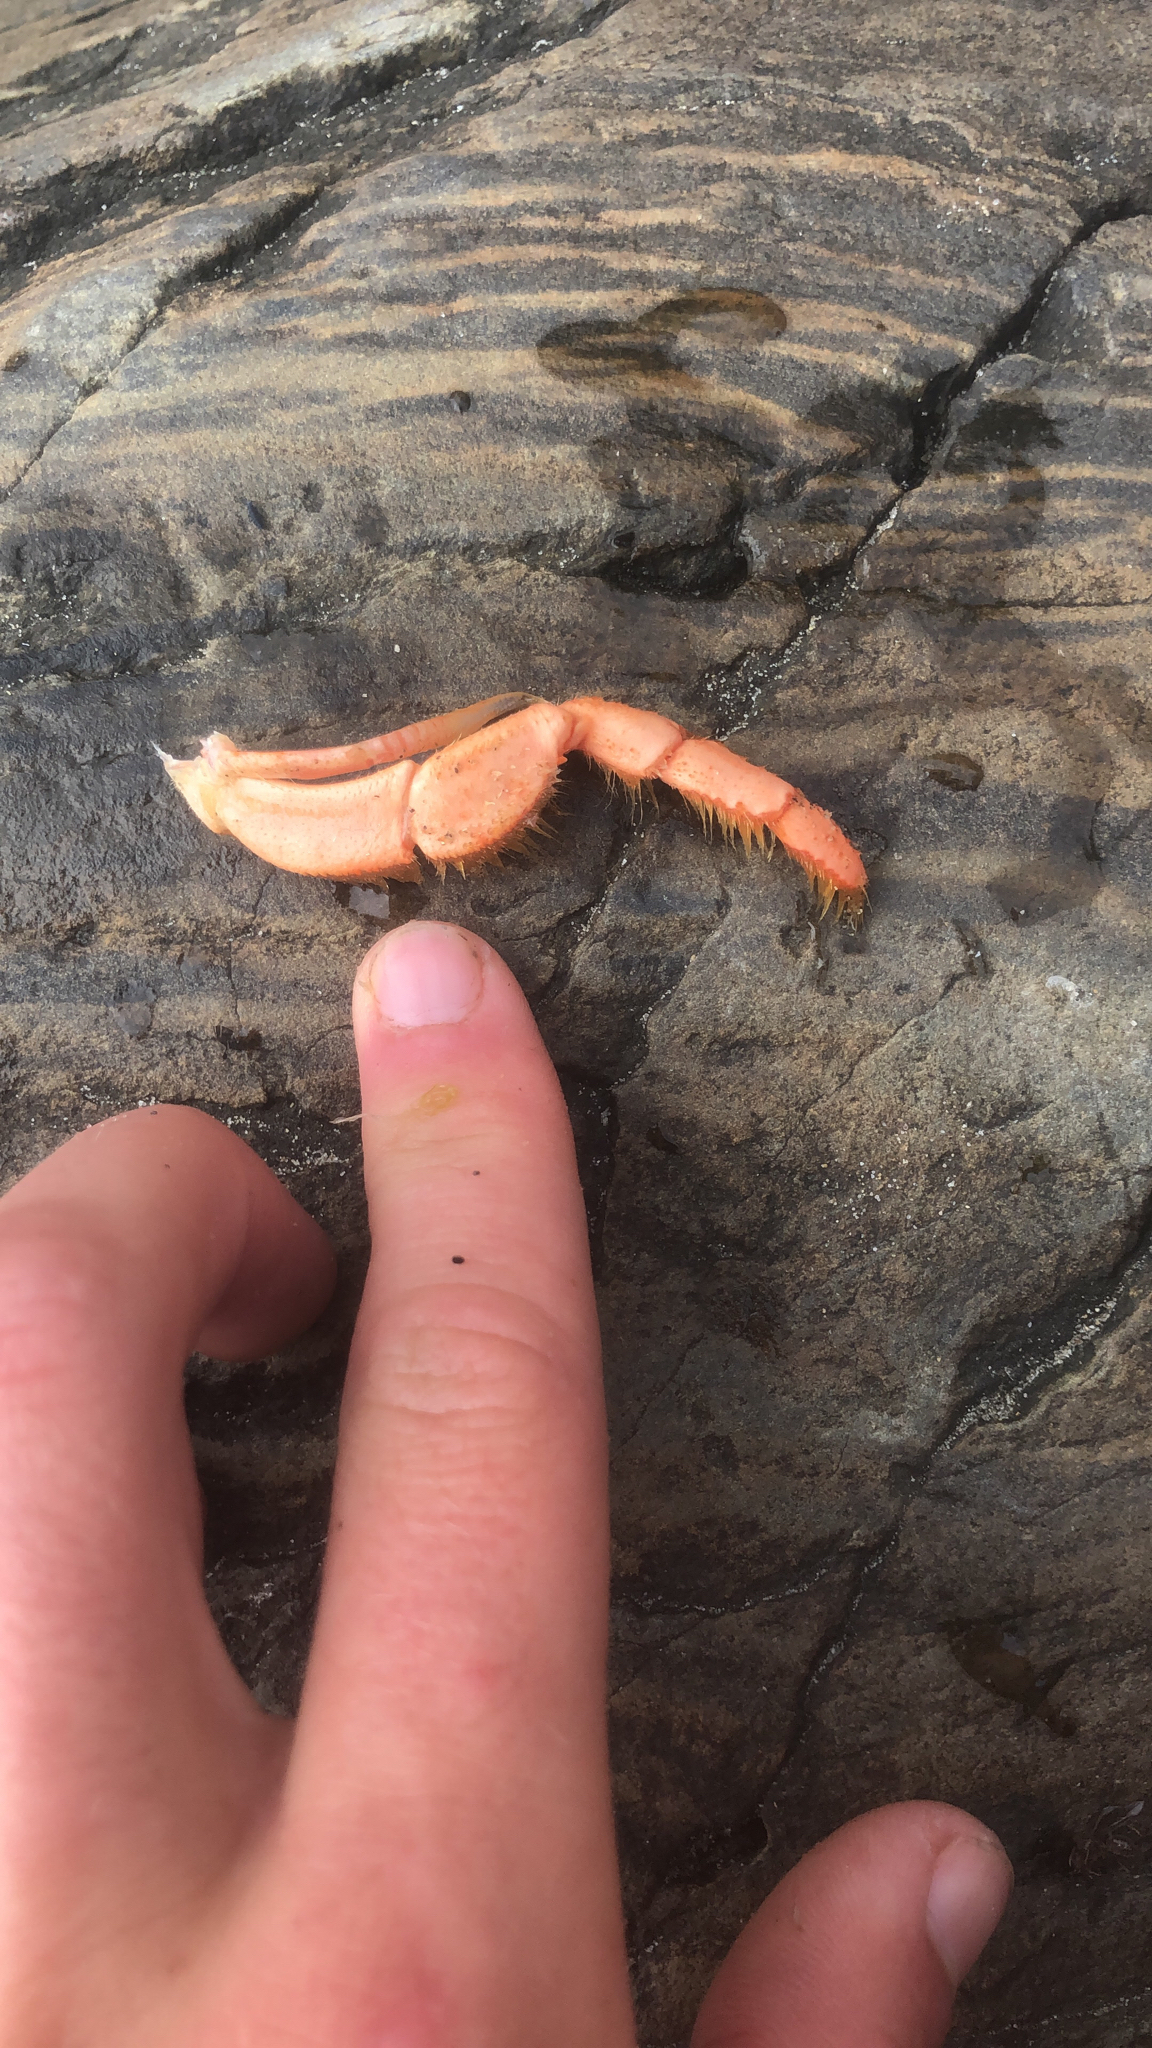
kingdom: Animalia
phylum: Arthropoda
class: Malacostraca
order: Decapoda
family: Nephropidae
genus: Homarus
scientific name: Homarus americanus
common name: American lobster
